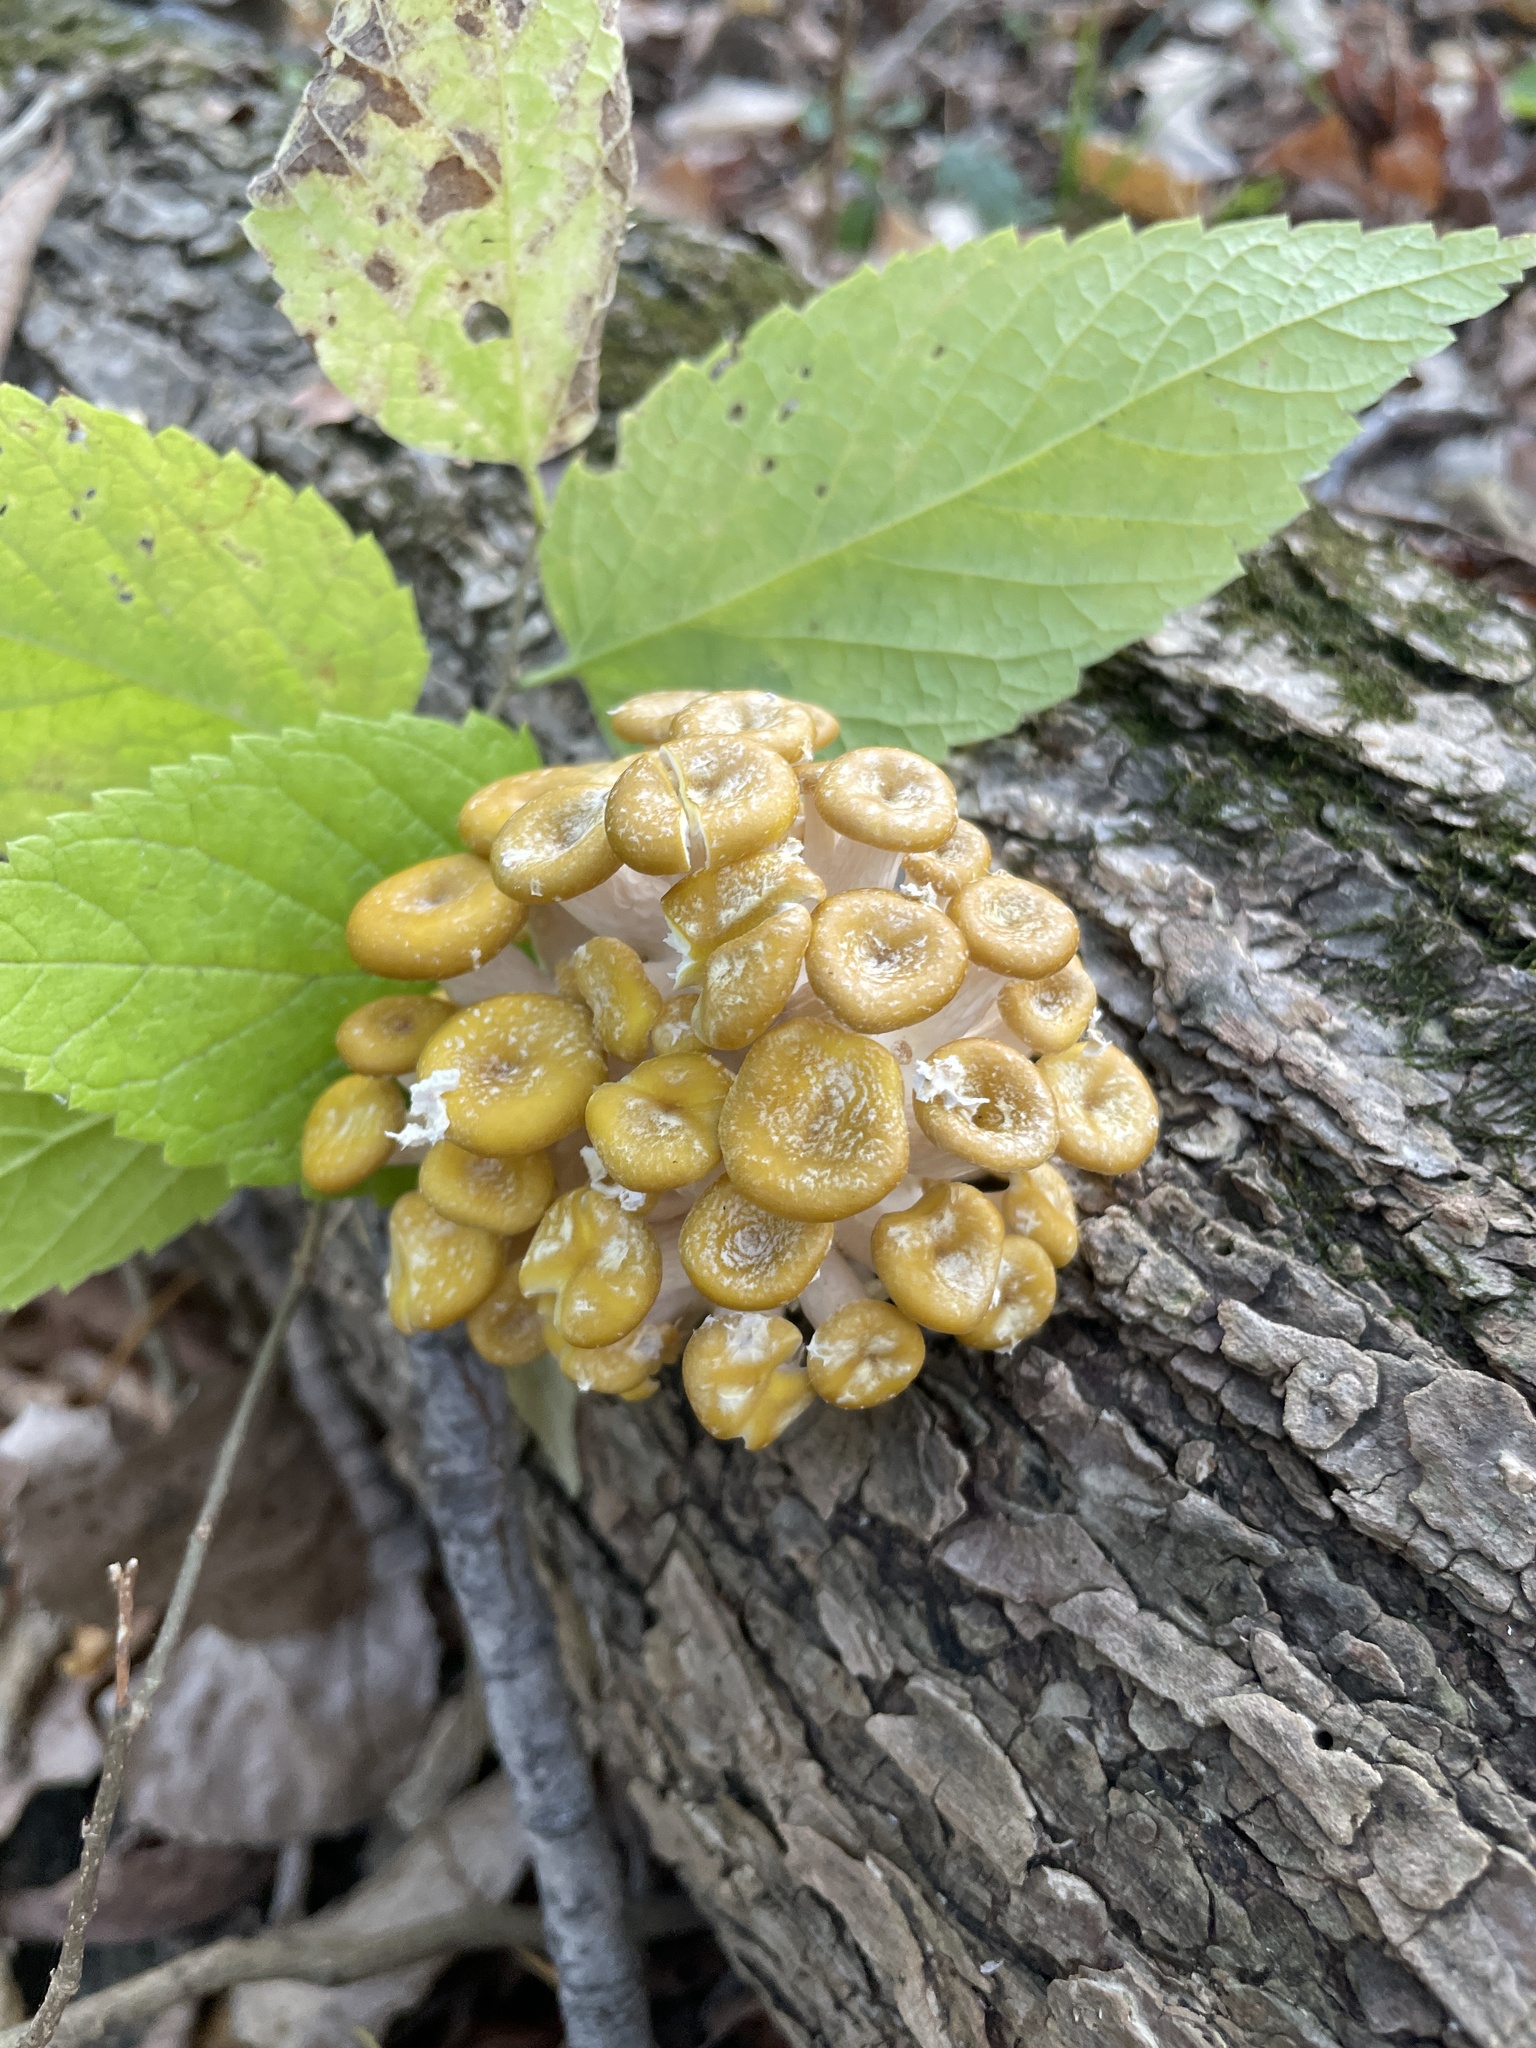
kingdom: Fungi
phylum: Basidiomycota
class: Agaricomycetes
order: Agaricales
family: Pleurotaceae
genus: Pleurotus
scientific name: Pleurotus citrinopileatus
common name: Golden oyster mushroom
